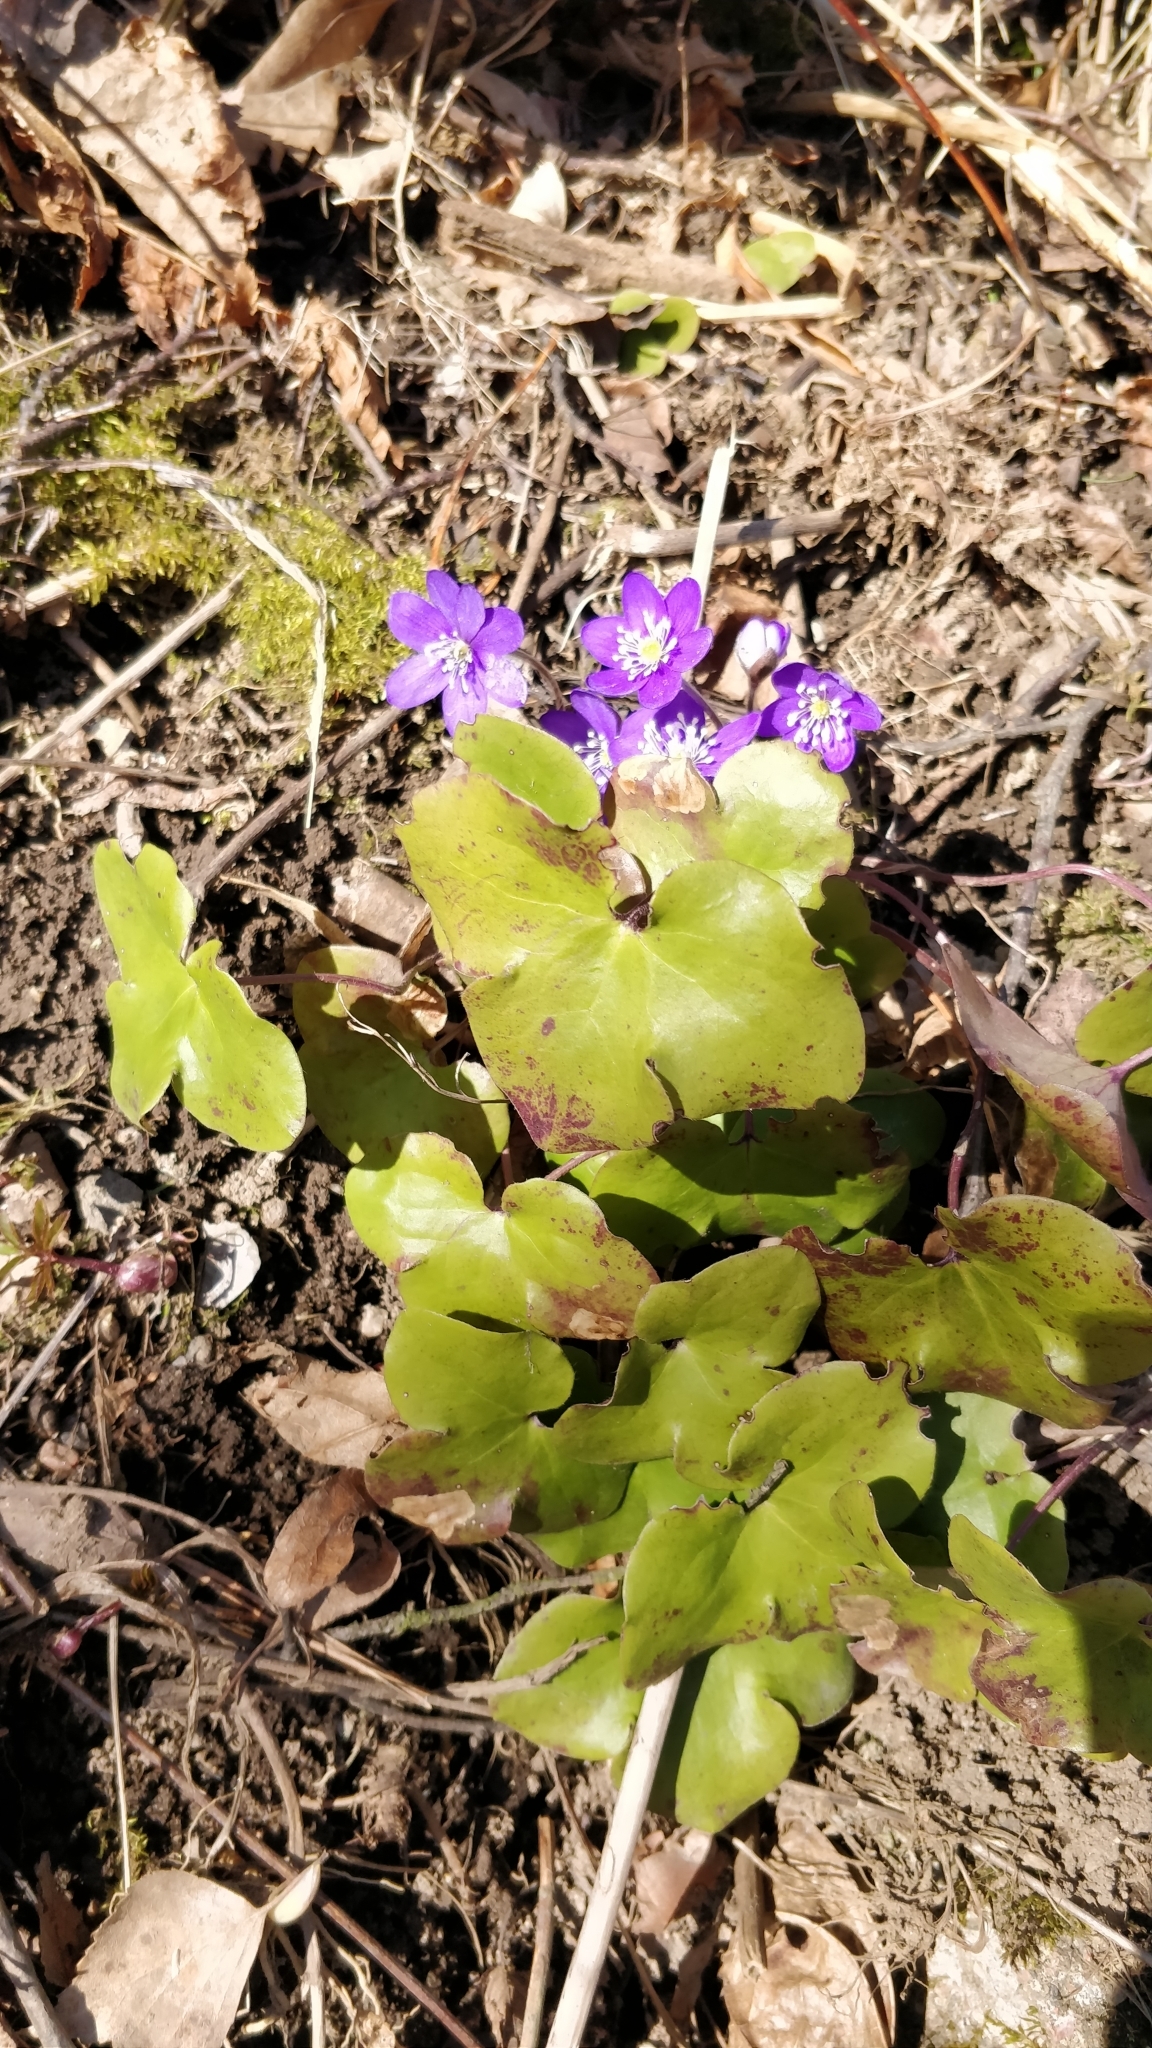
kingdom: Plantae
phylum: Tracheophyta
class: Magnoliopsida
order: Ranunculales
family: Ranunculaceae
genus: Hepatica
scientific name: Hepatica nobilis
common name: Liverleaf
